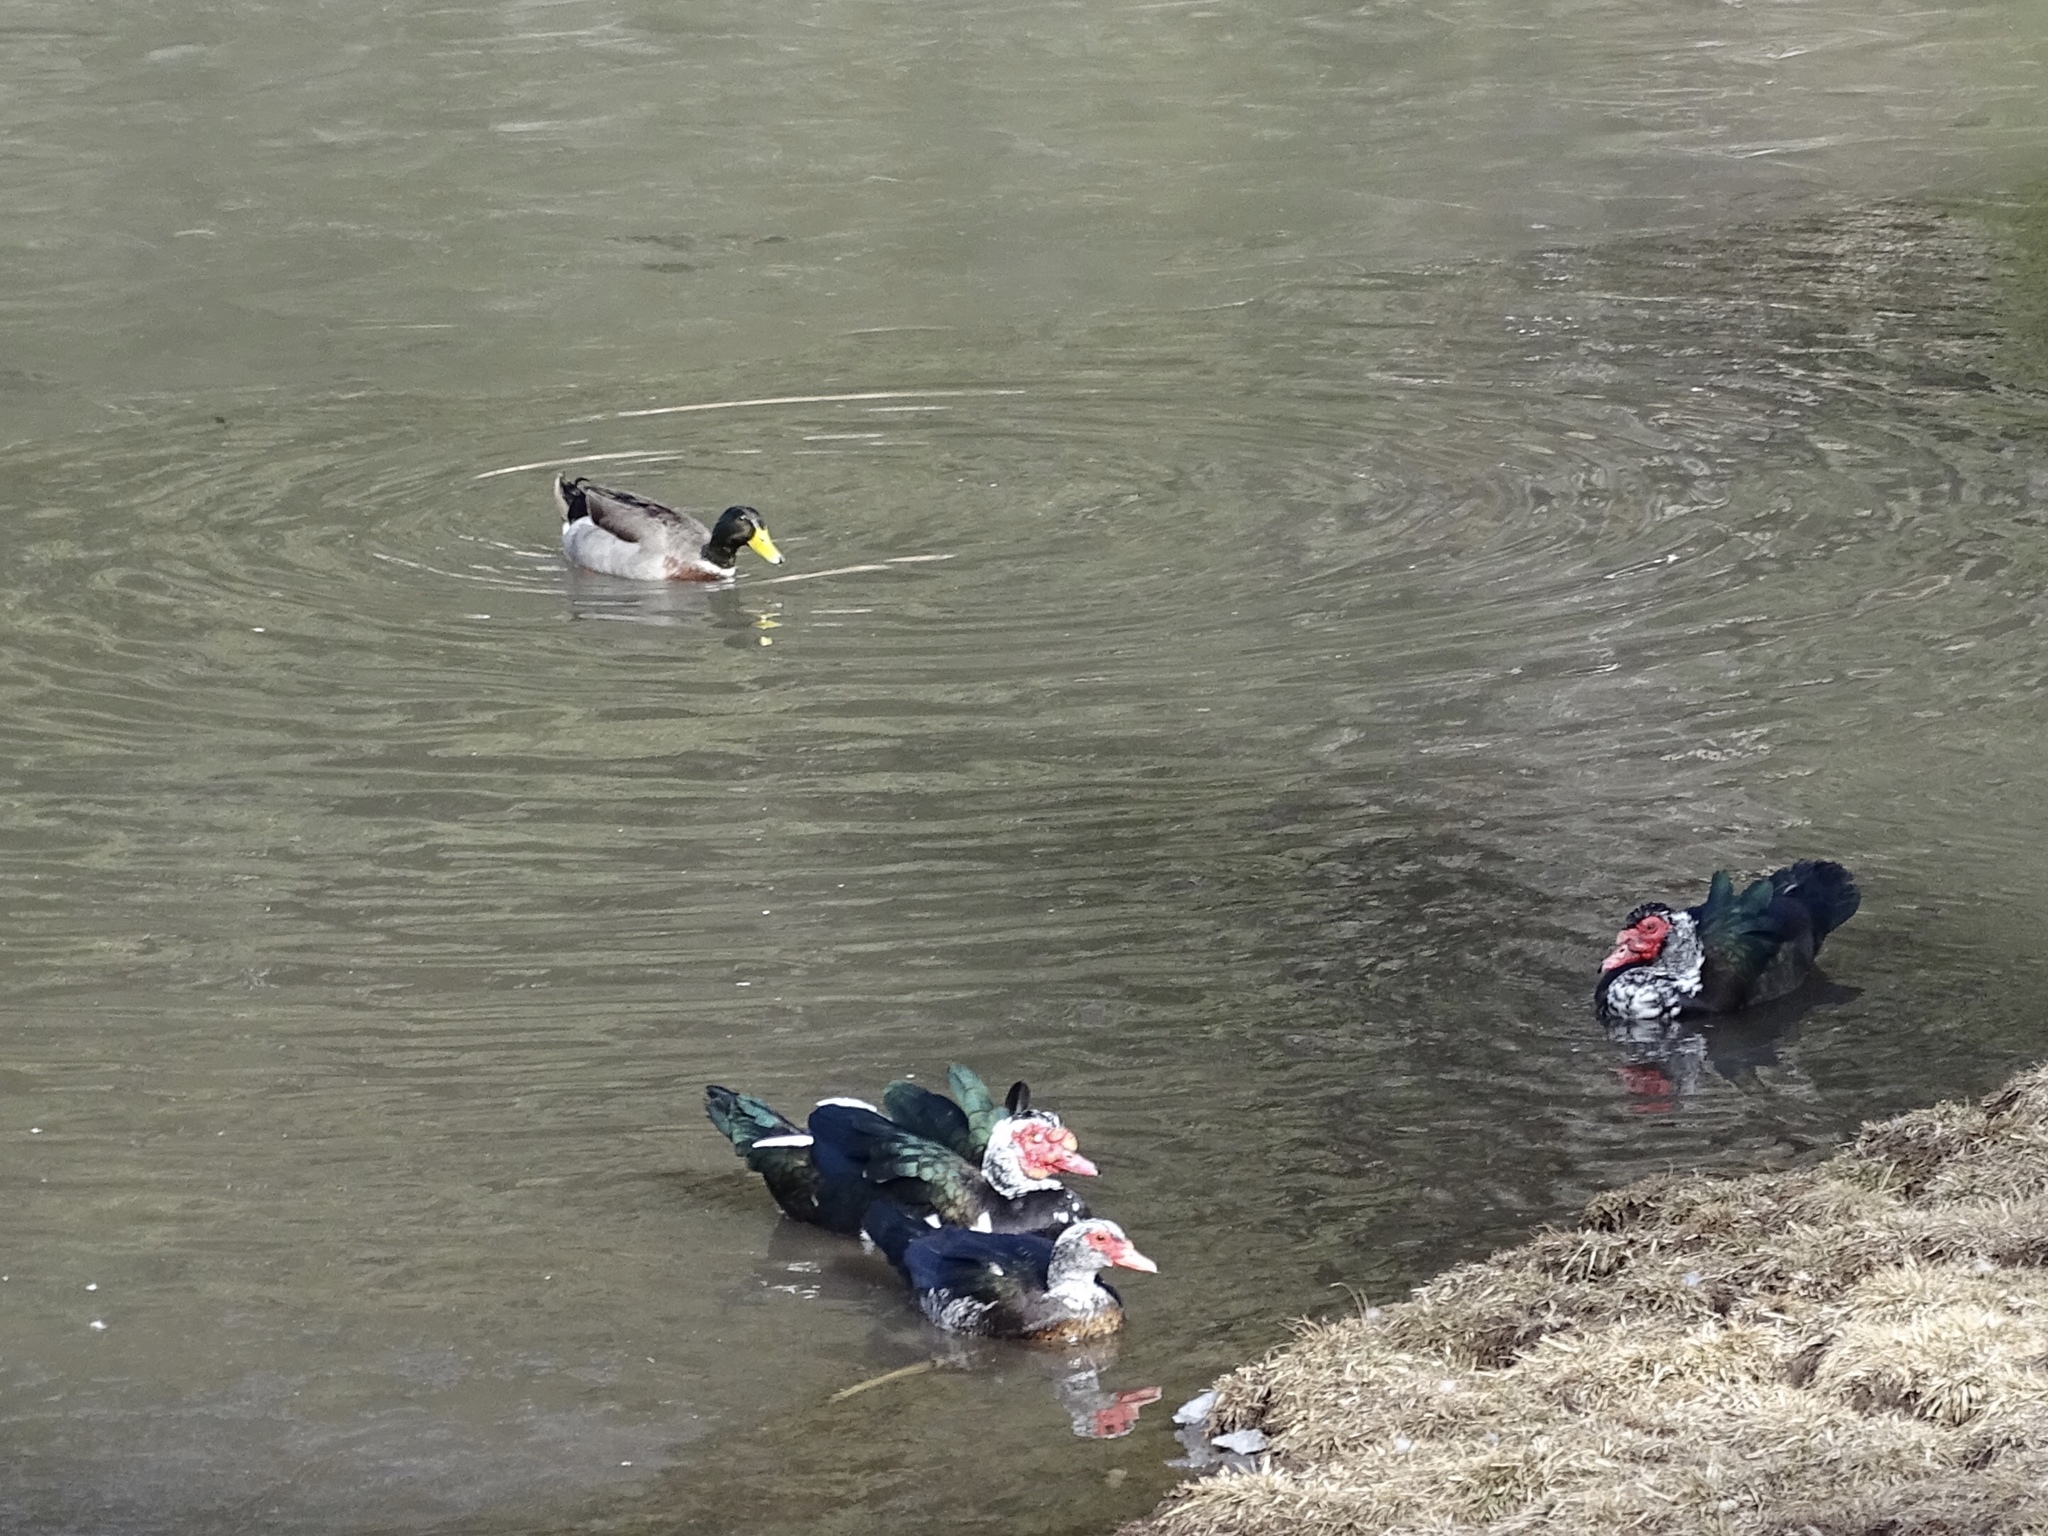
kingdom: Animalia
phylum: Chordata
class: Aves
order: Anseriformes
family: Anatidae
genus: Anas
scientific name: Anas platyrhynchos
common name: Mallard
